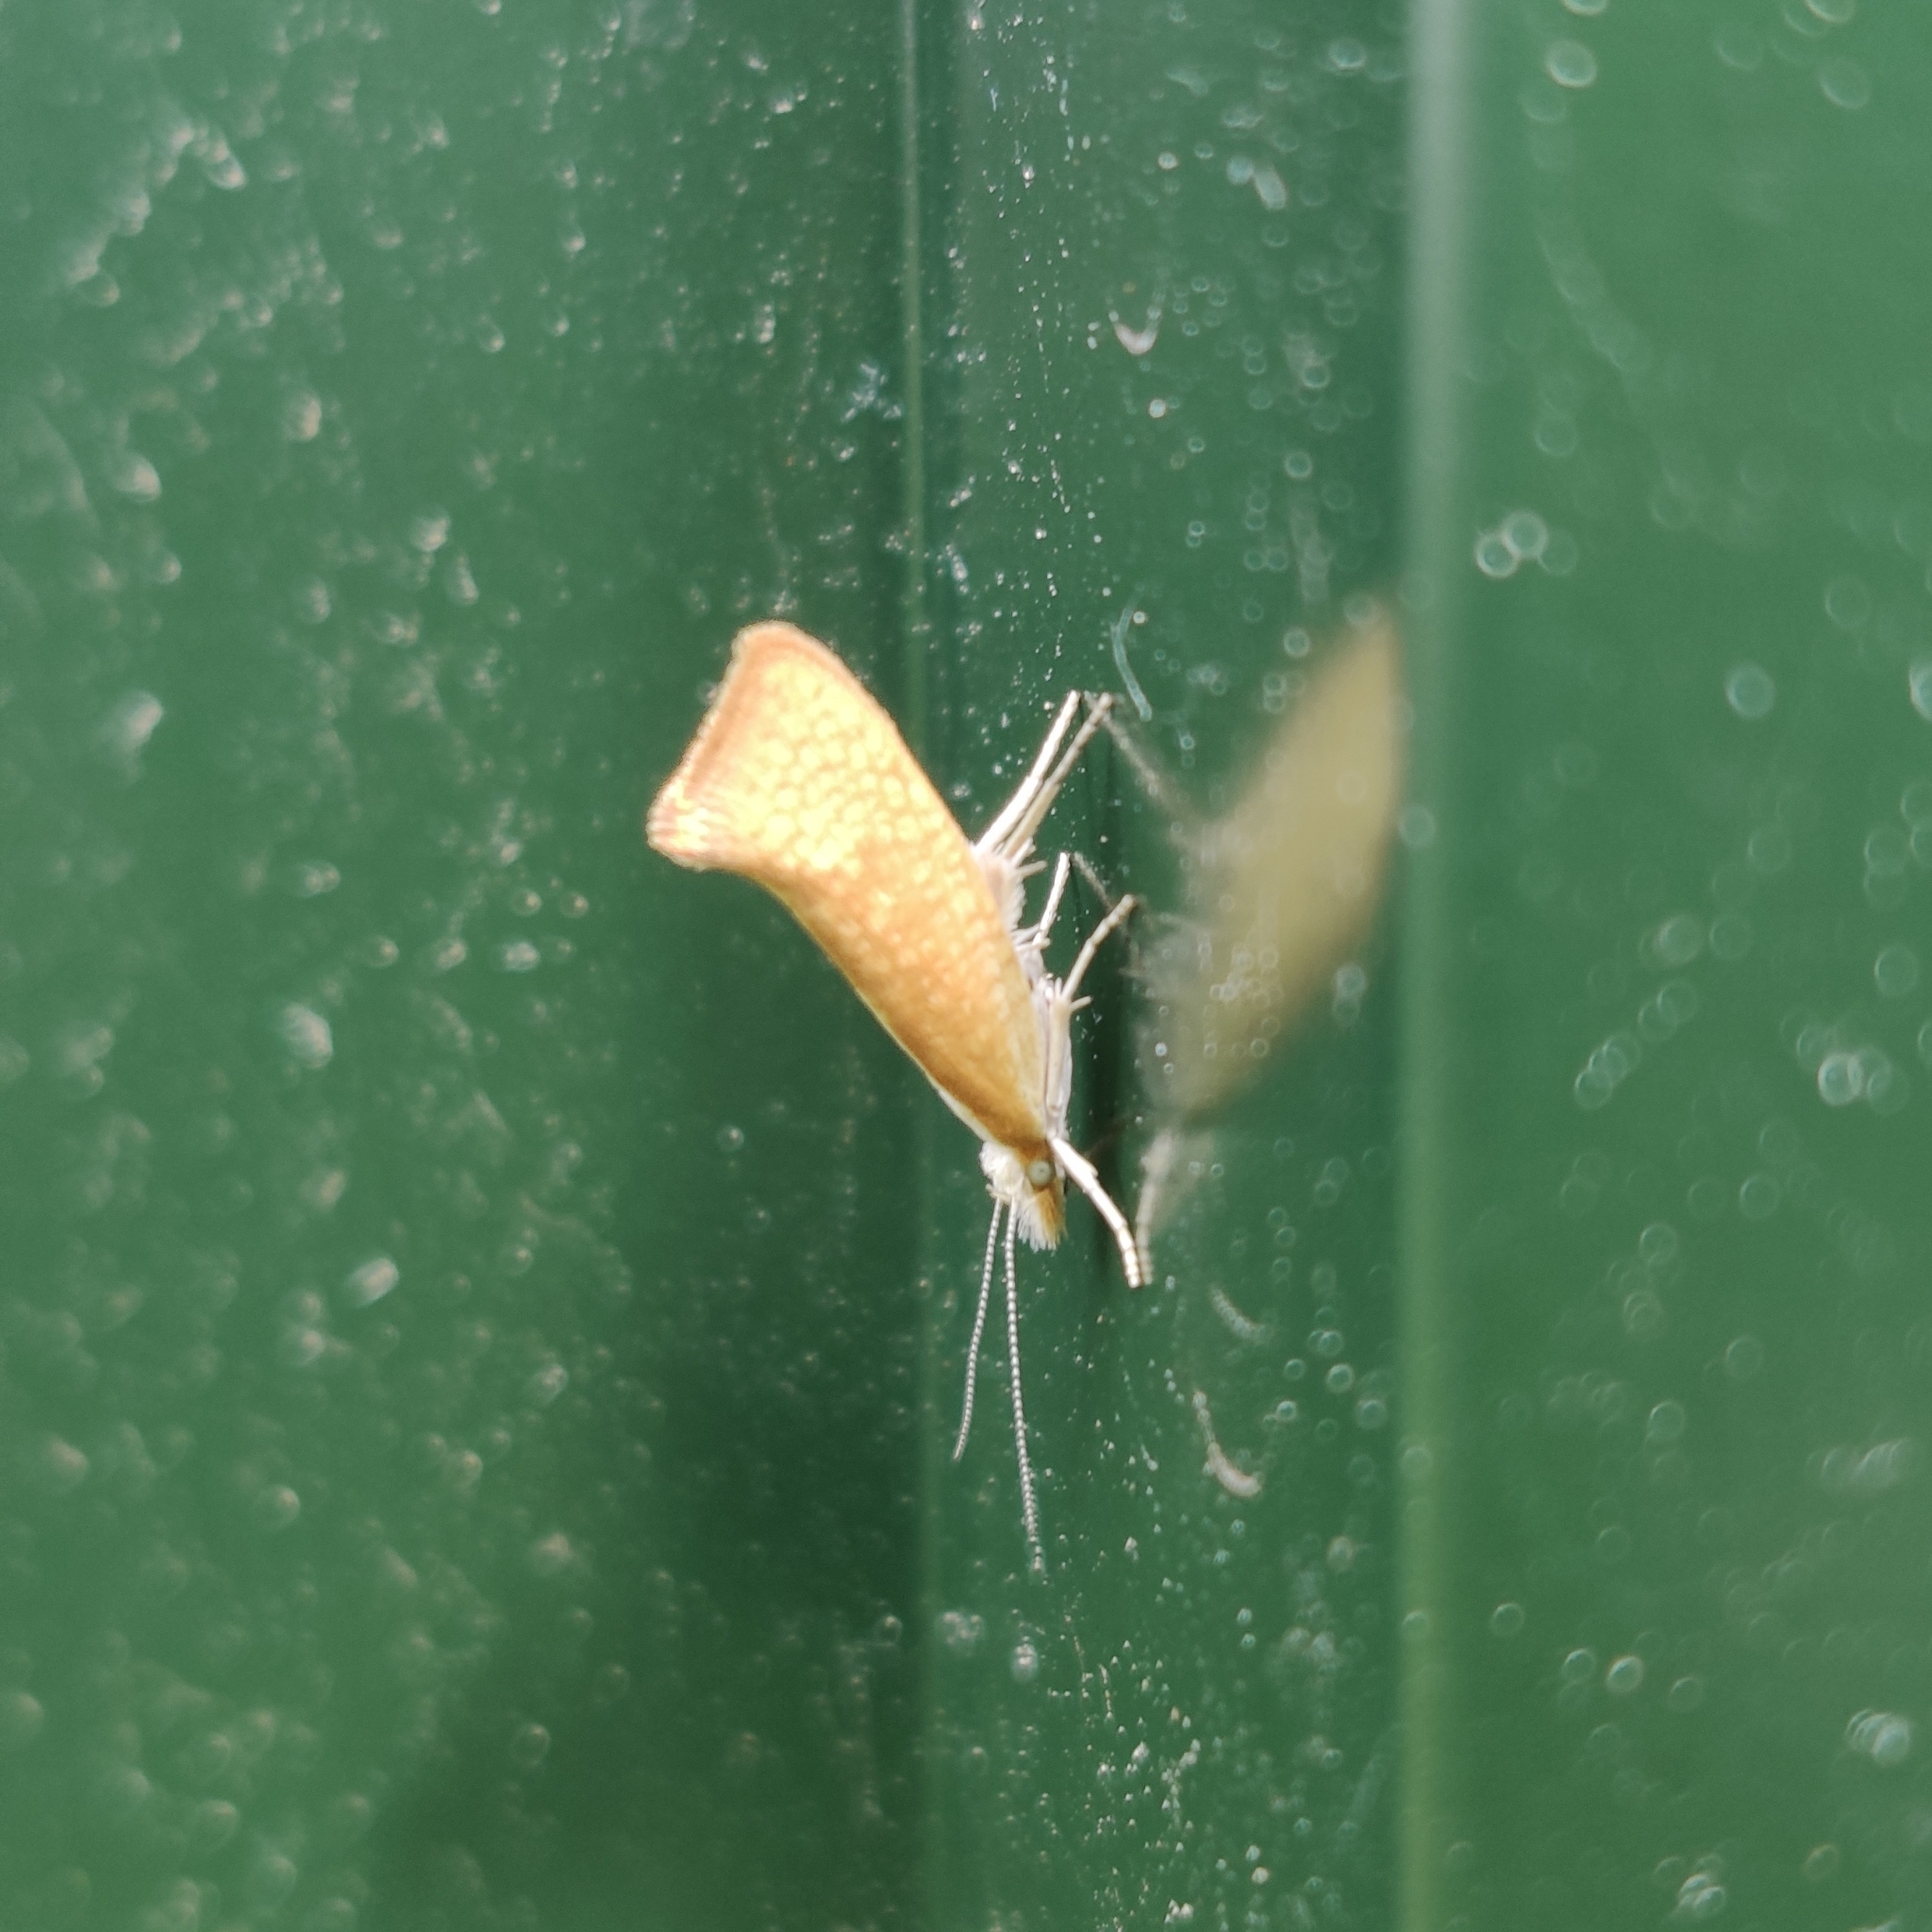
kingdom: Animalia
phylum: Arthropoda
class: Insecta
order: Lepidoptera
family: Ypsolophidae
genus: Ypsolopha
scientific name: Ypsolopha lucella
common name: Plain smudge
